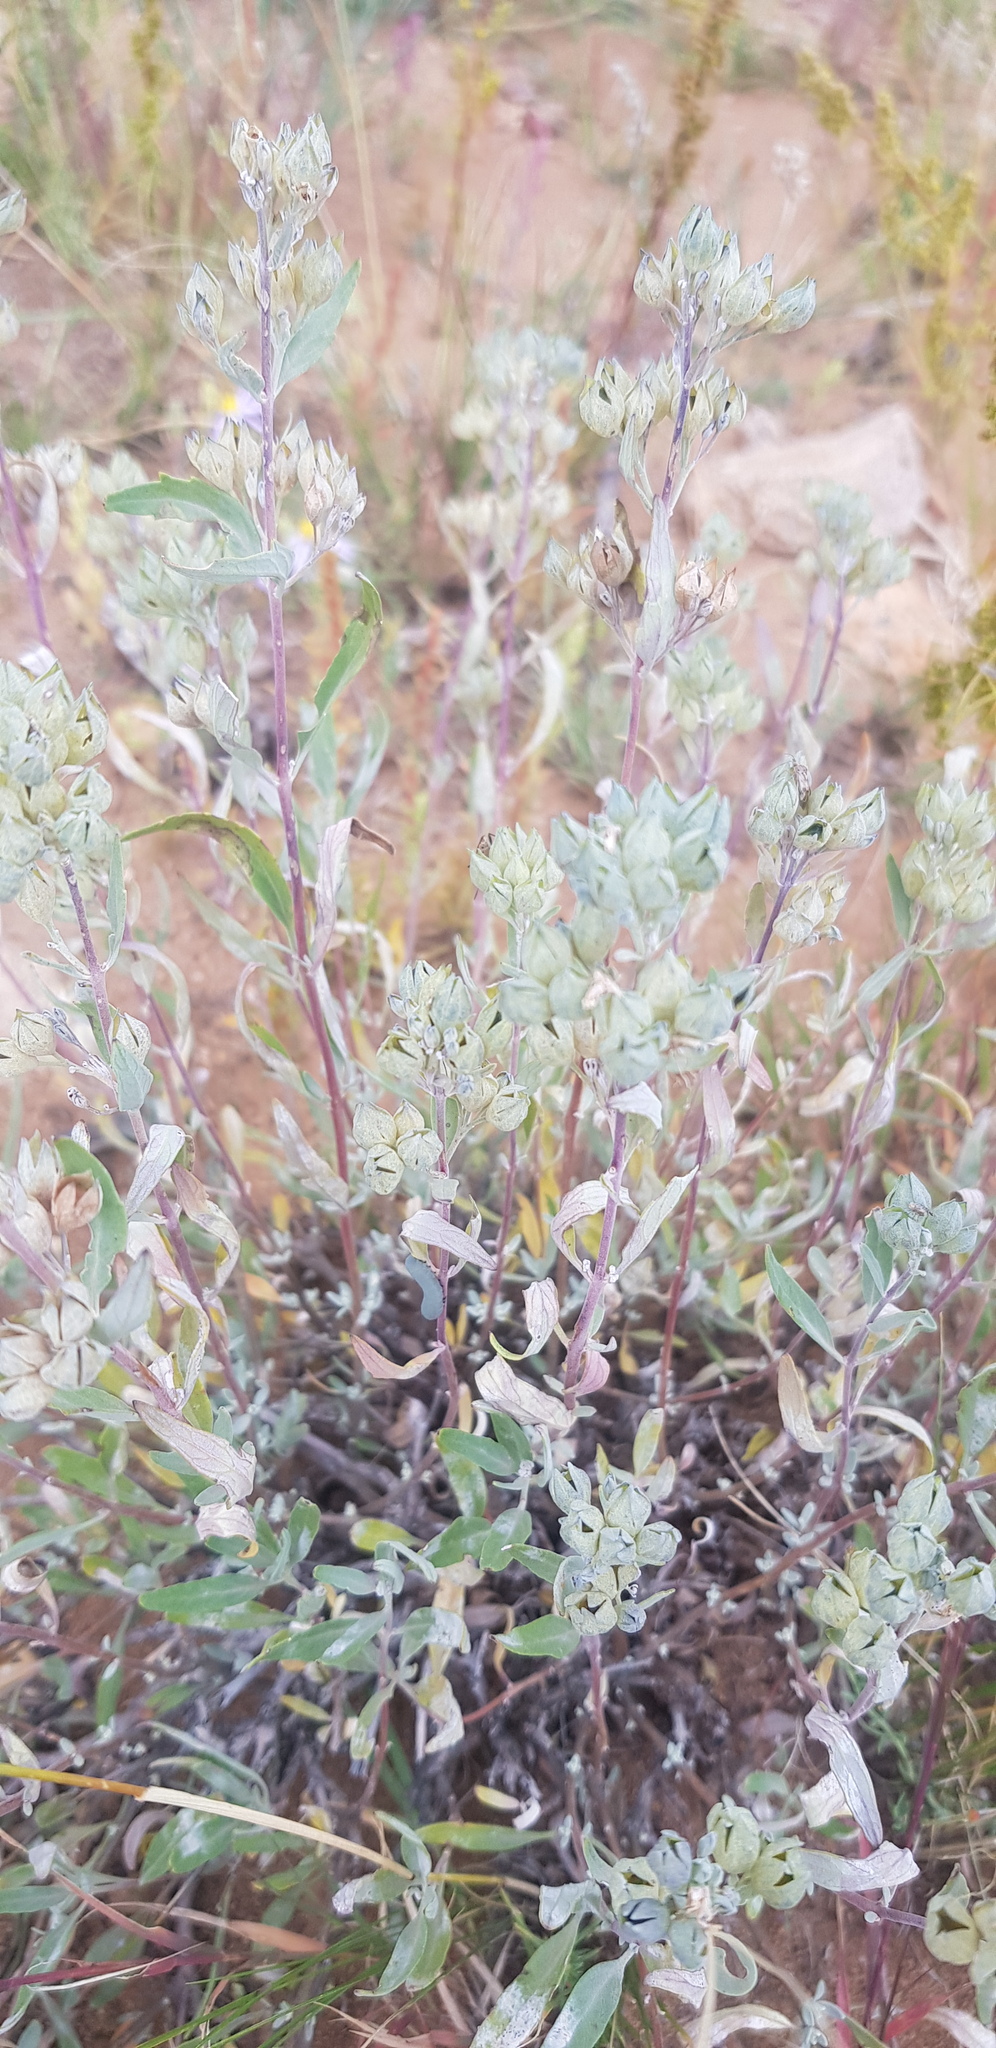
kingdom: Plantae
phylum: Tracheophyta
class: Magnoliopsida
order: Lamiales
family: Lamiaceae
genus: Caryopteris
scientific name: Caryopteris mongholica
